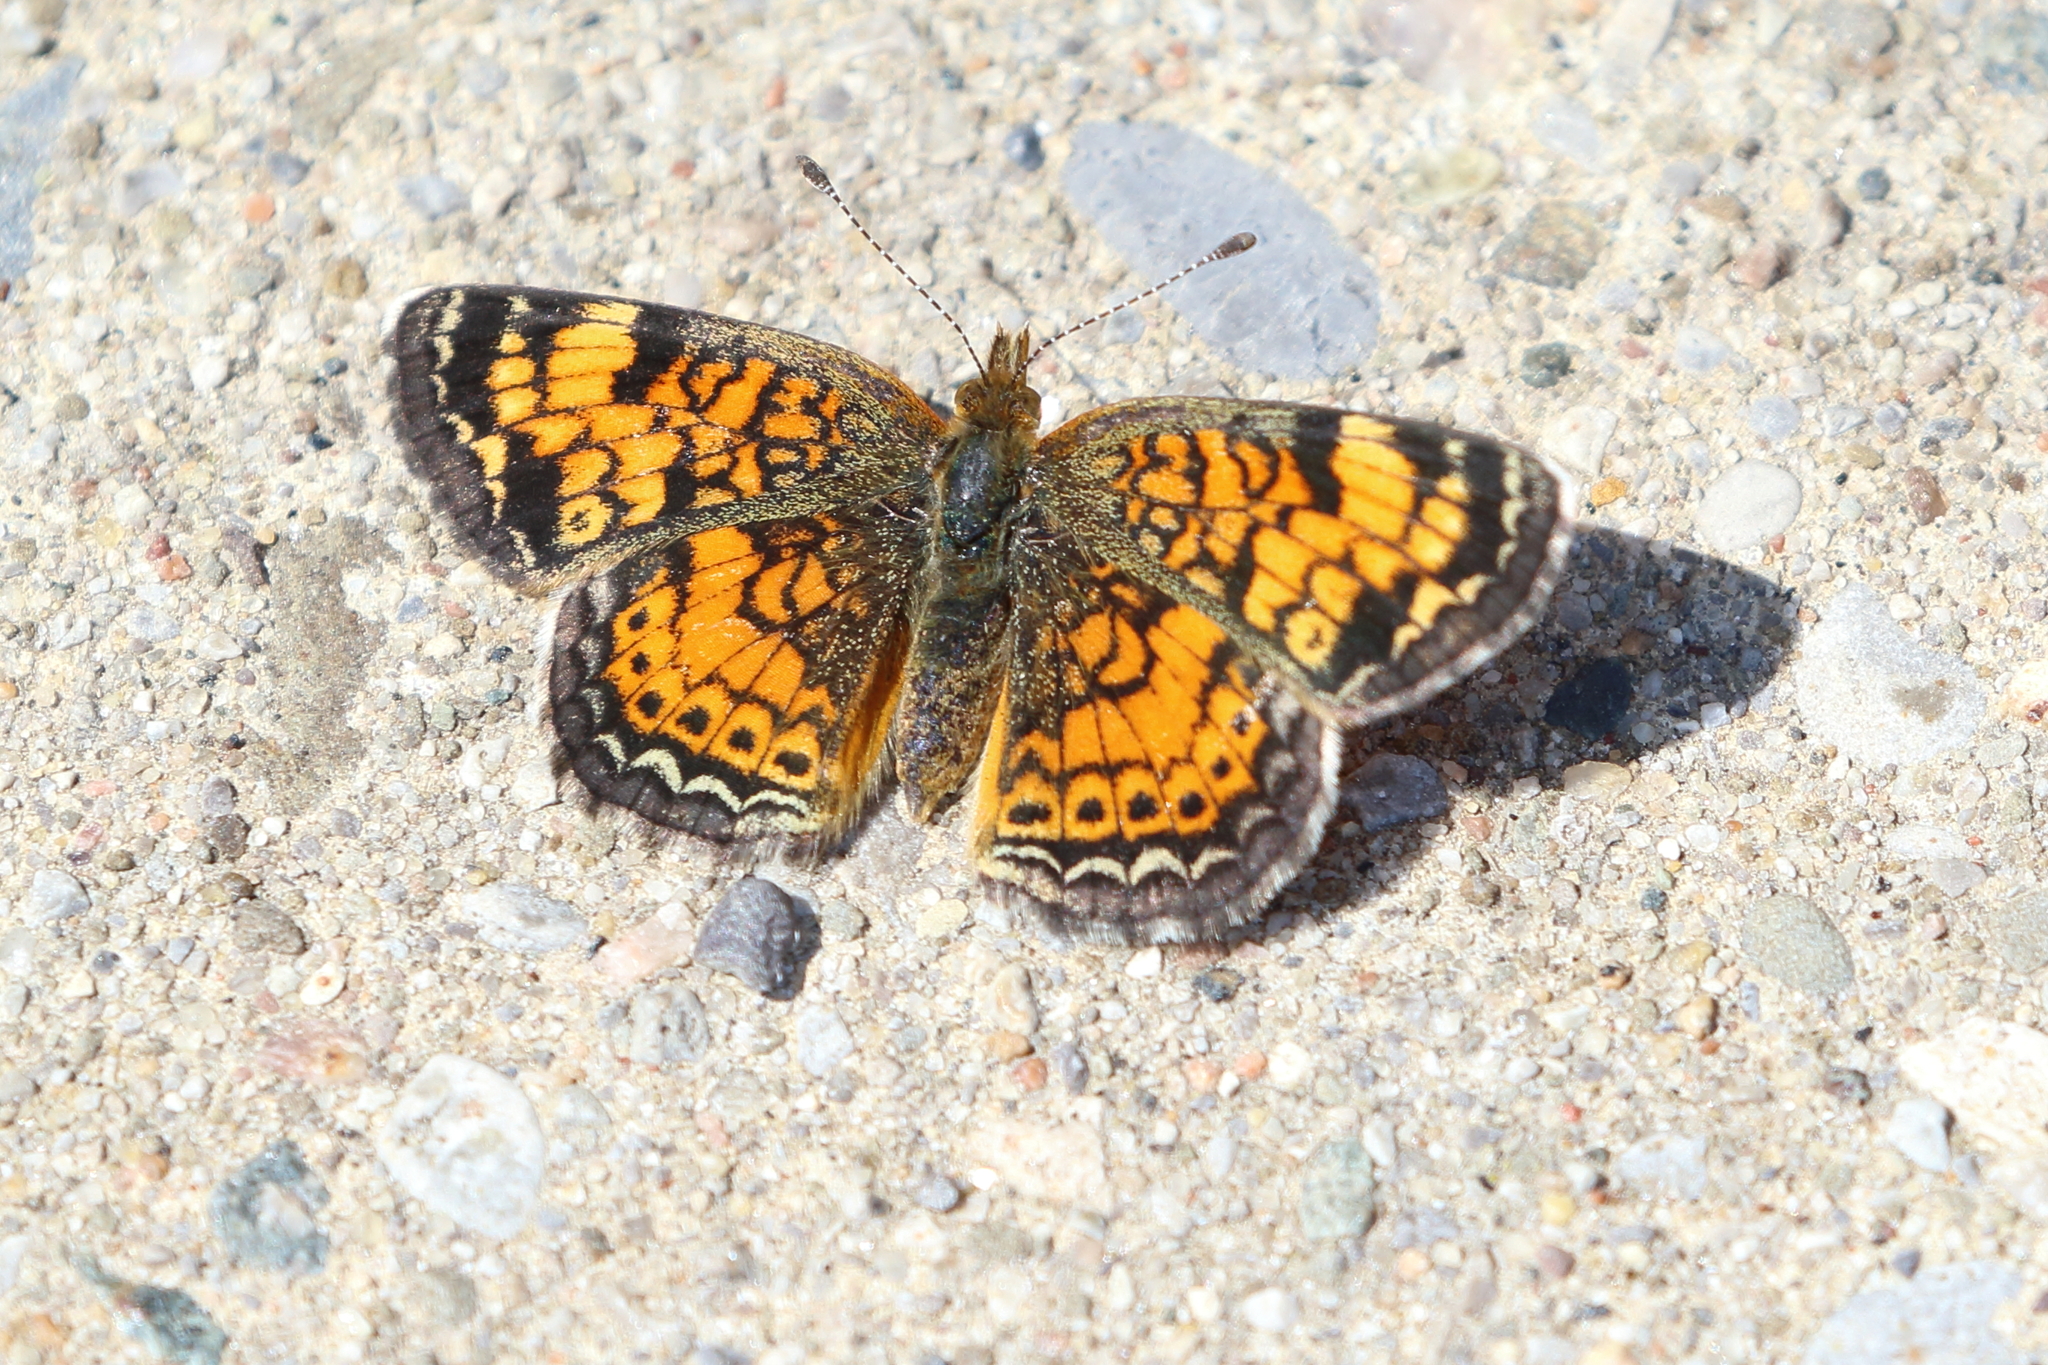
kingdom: Animalia
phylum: Arthropoda
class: Insecta
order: Lepidoptera
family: Nymphalidae
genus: Phyciodes
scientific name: Phyciodes tharos
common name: Pearl crescent
